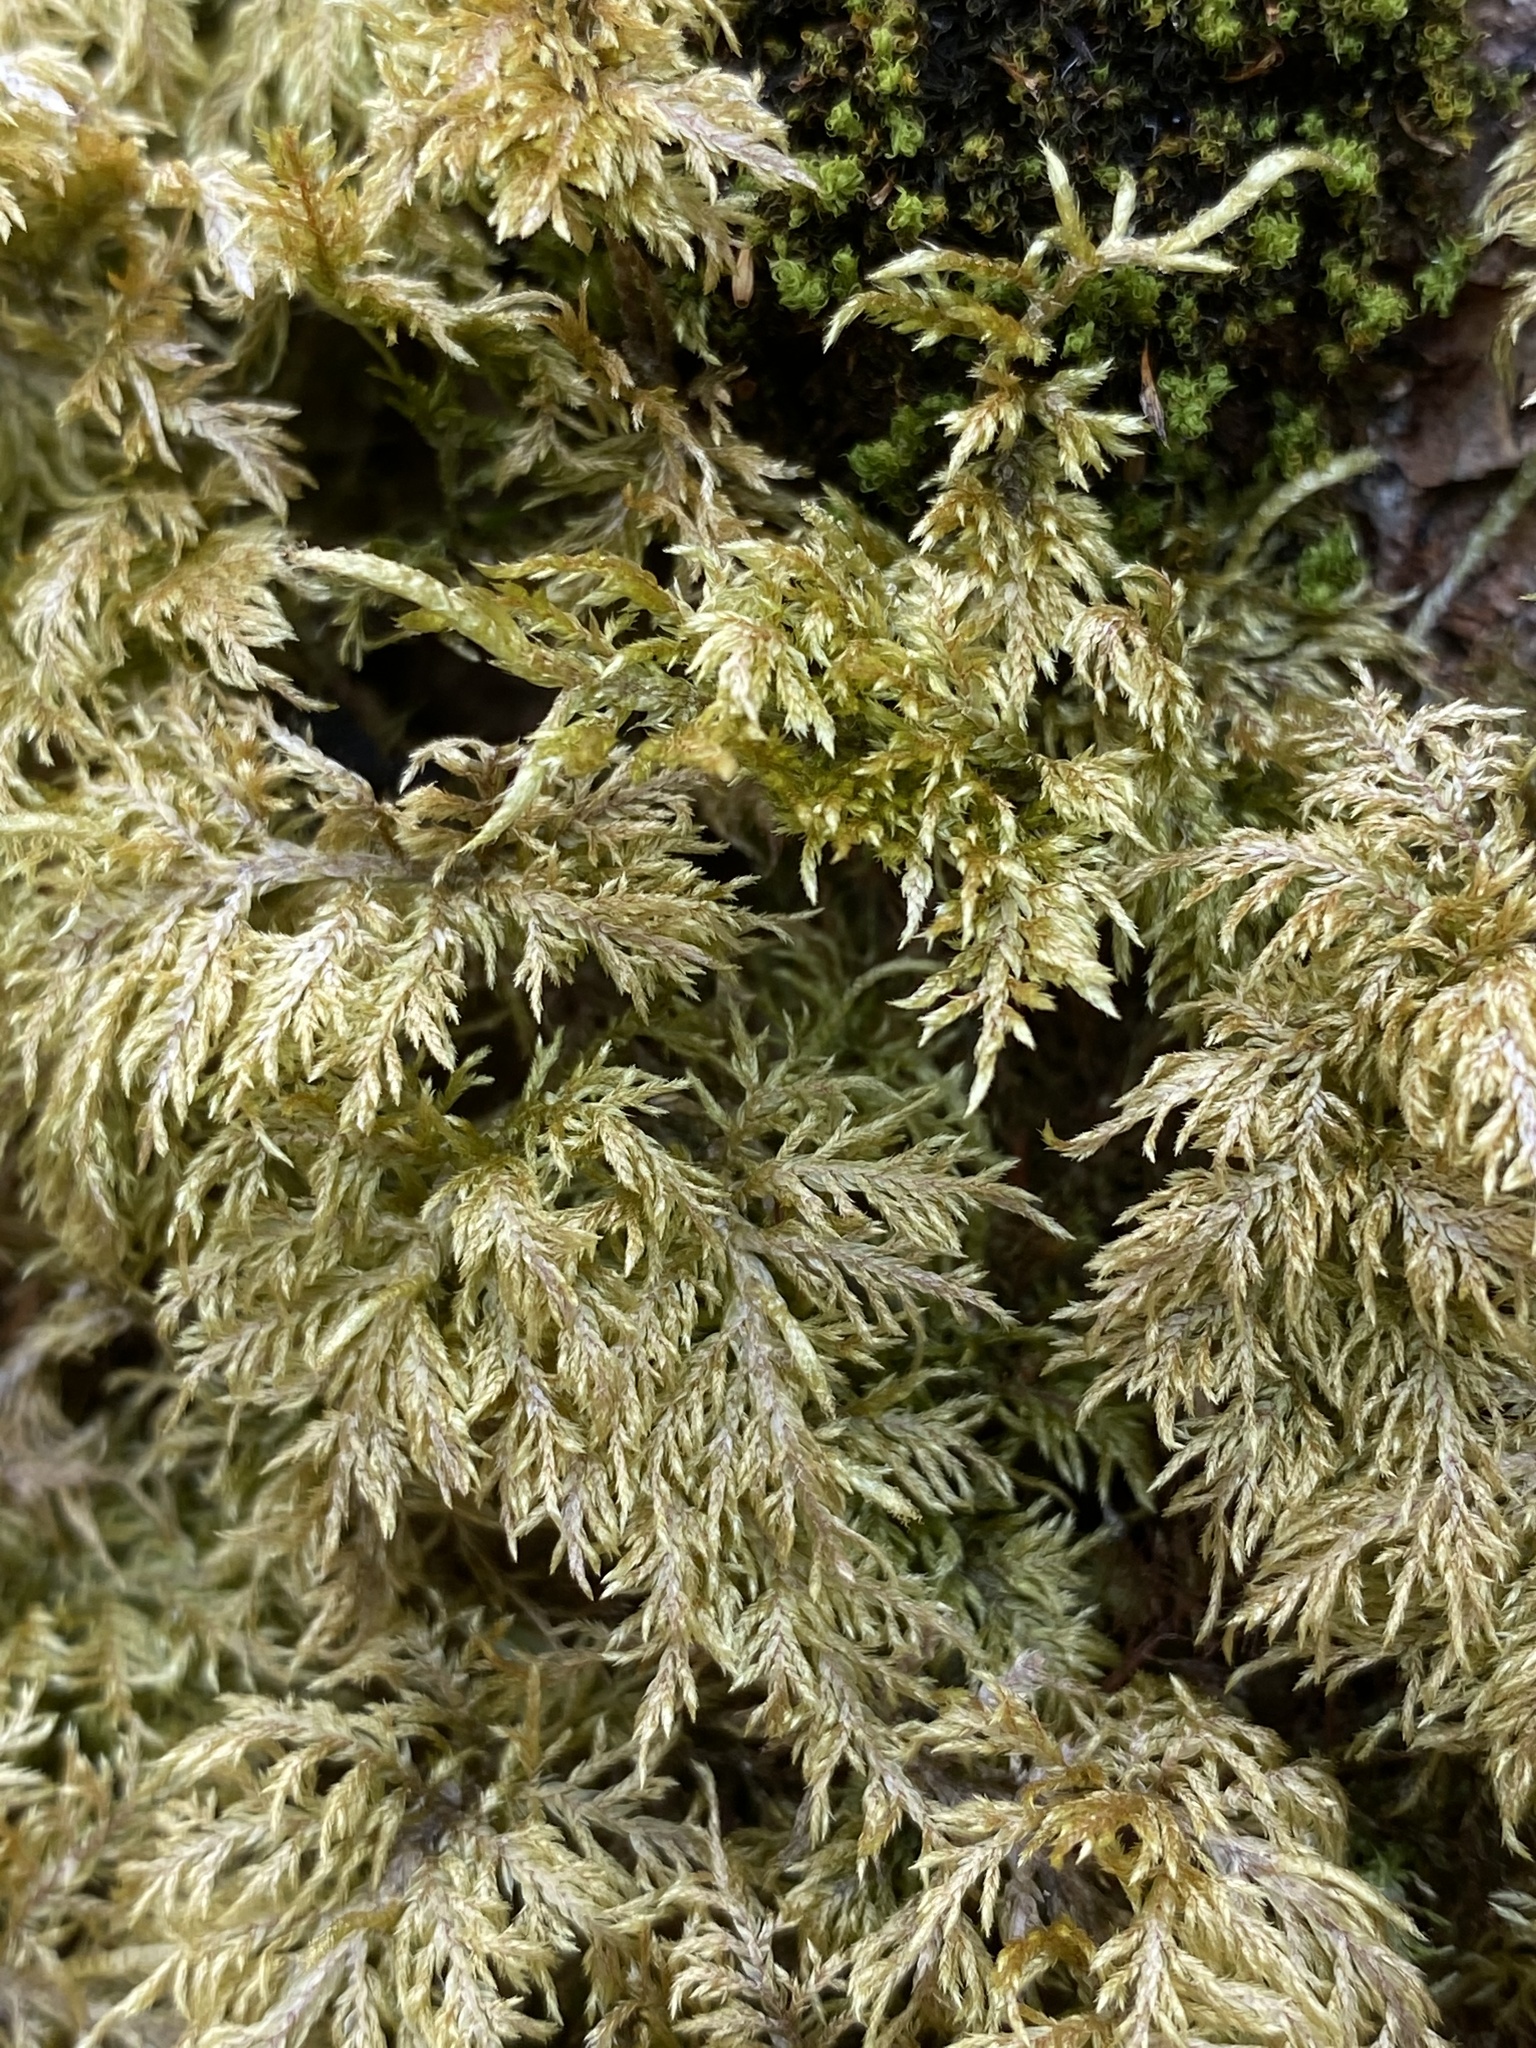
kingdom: Plantae
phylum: Bryophyta
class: Bryopsida
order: Hypnales
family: Hylocomiaceae
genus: Hylocomium
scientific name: Hylocomium splendens
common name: Stairstep moss
